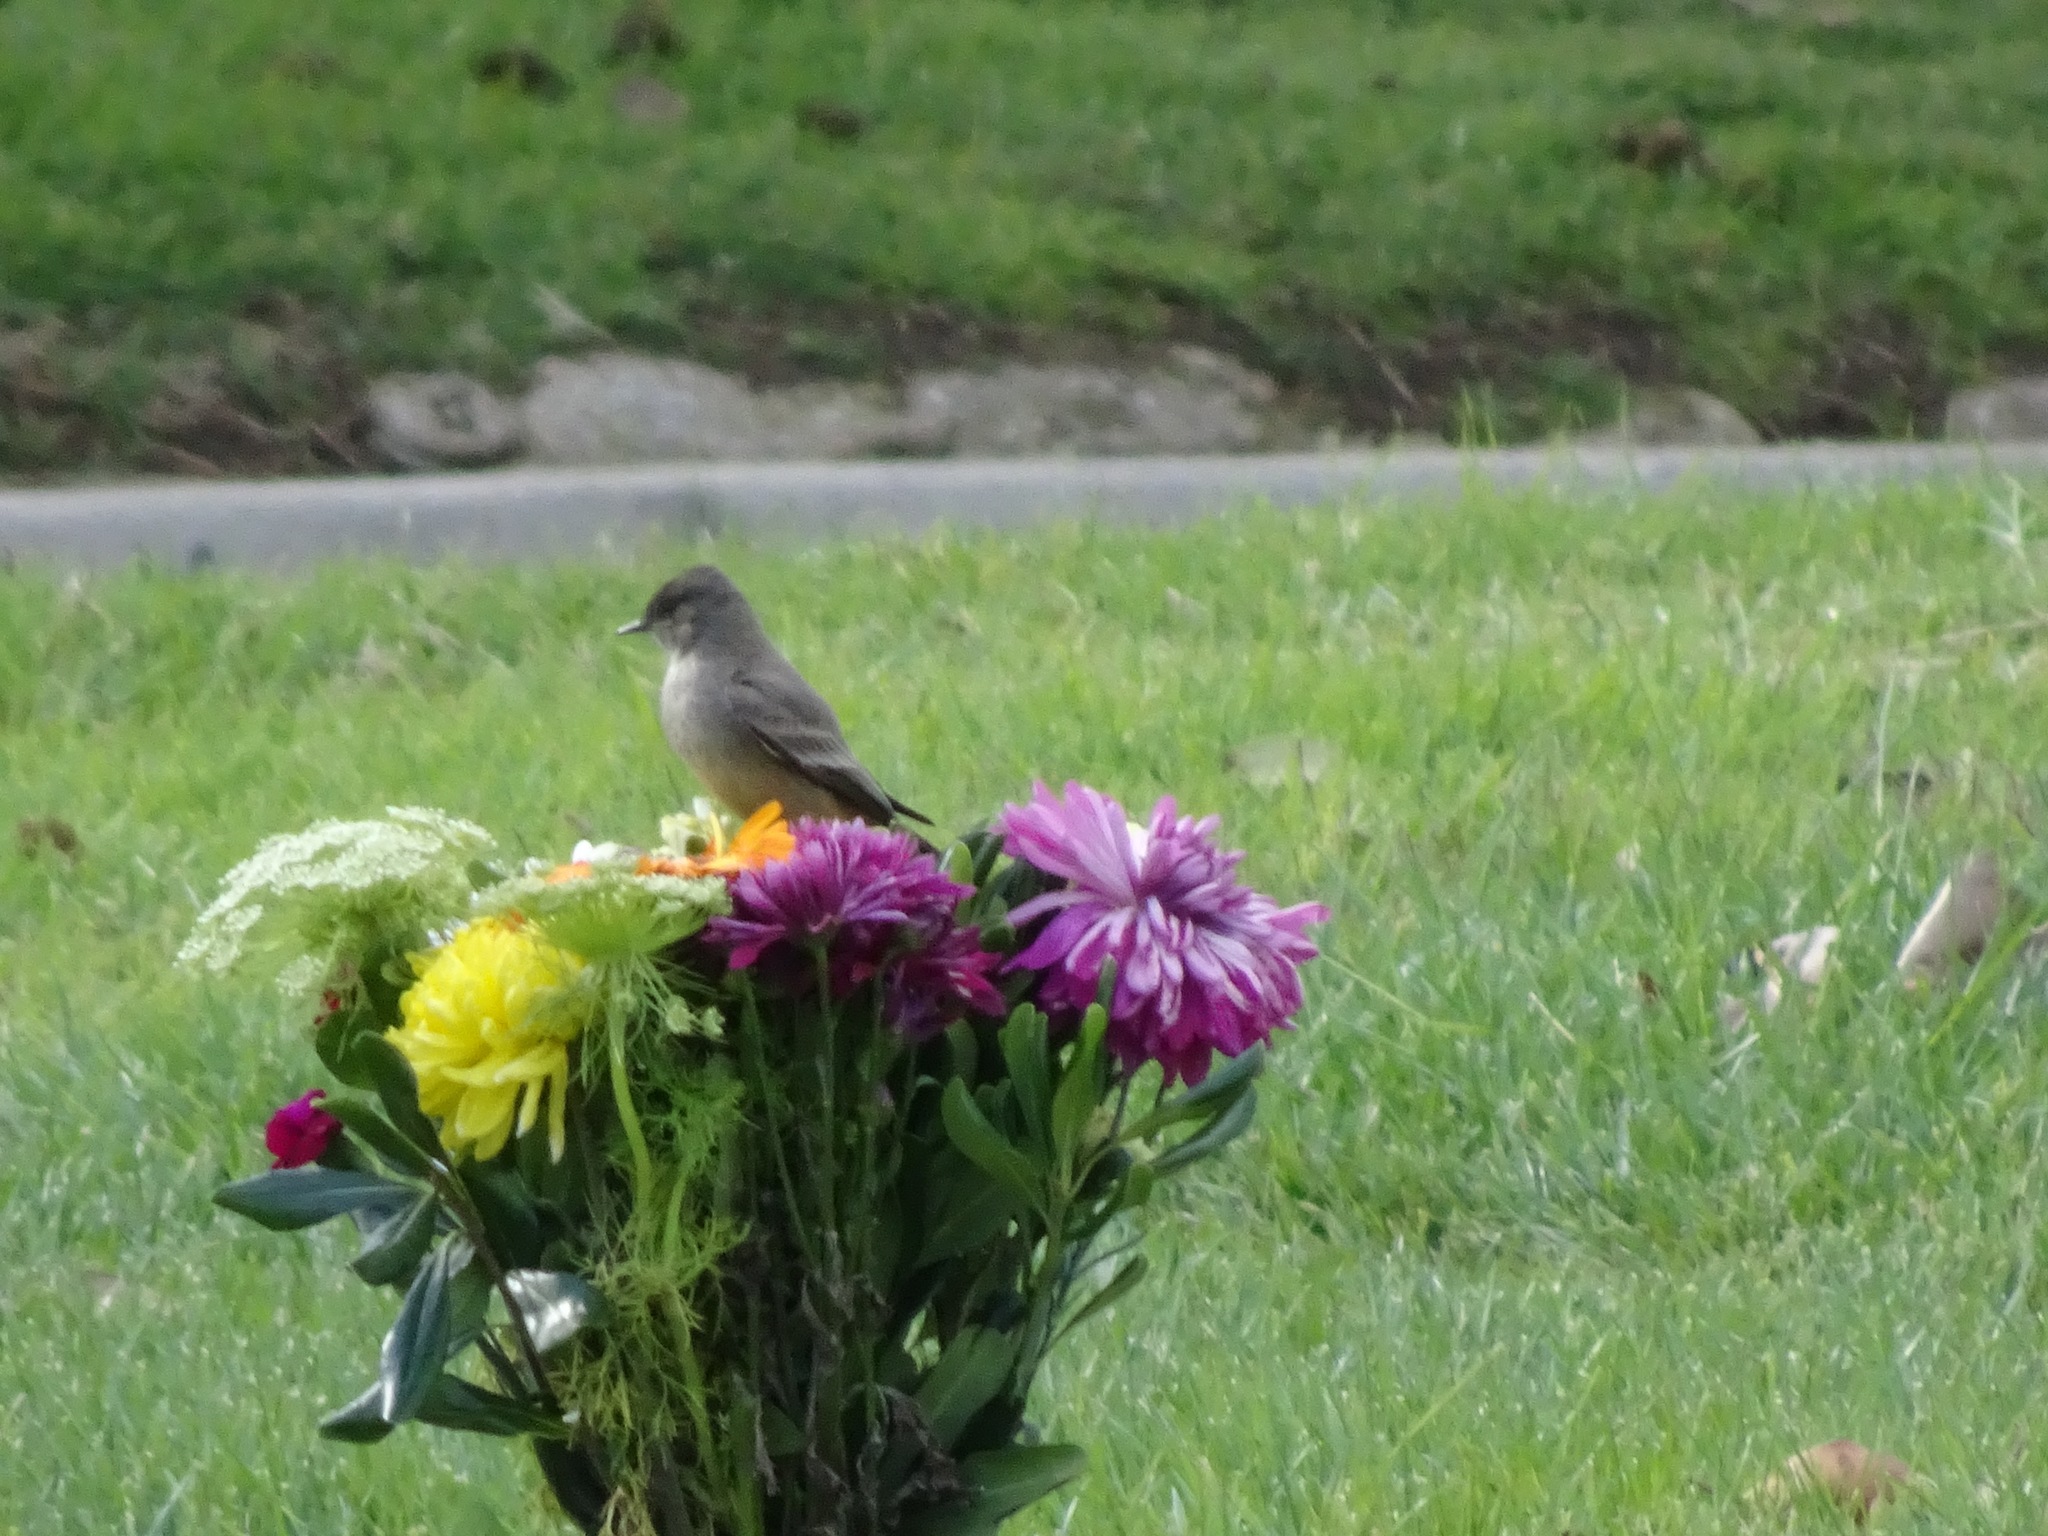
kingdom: Animalia
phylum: Chordata
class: Aves
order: Passeriformes
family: Tyrannidae
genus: Sayornis
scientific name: Sayornis saya
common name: Say's phoebe
